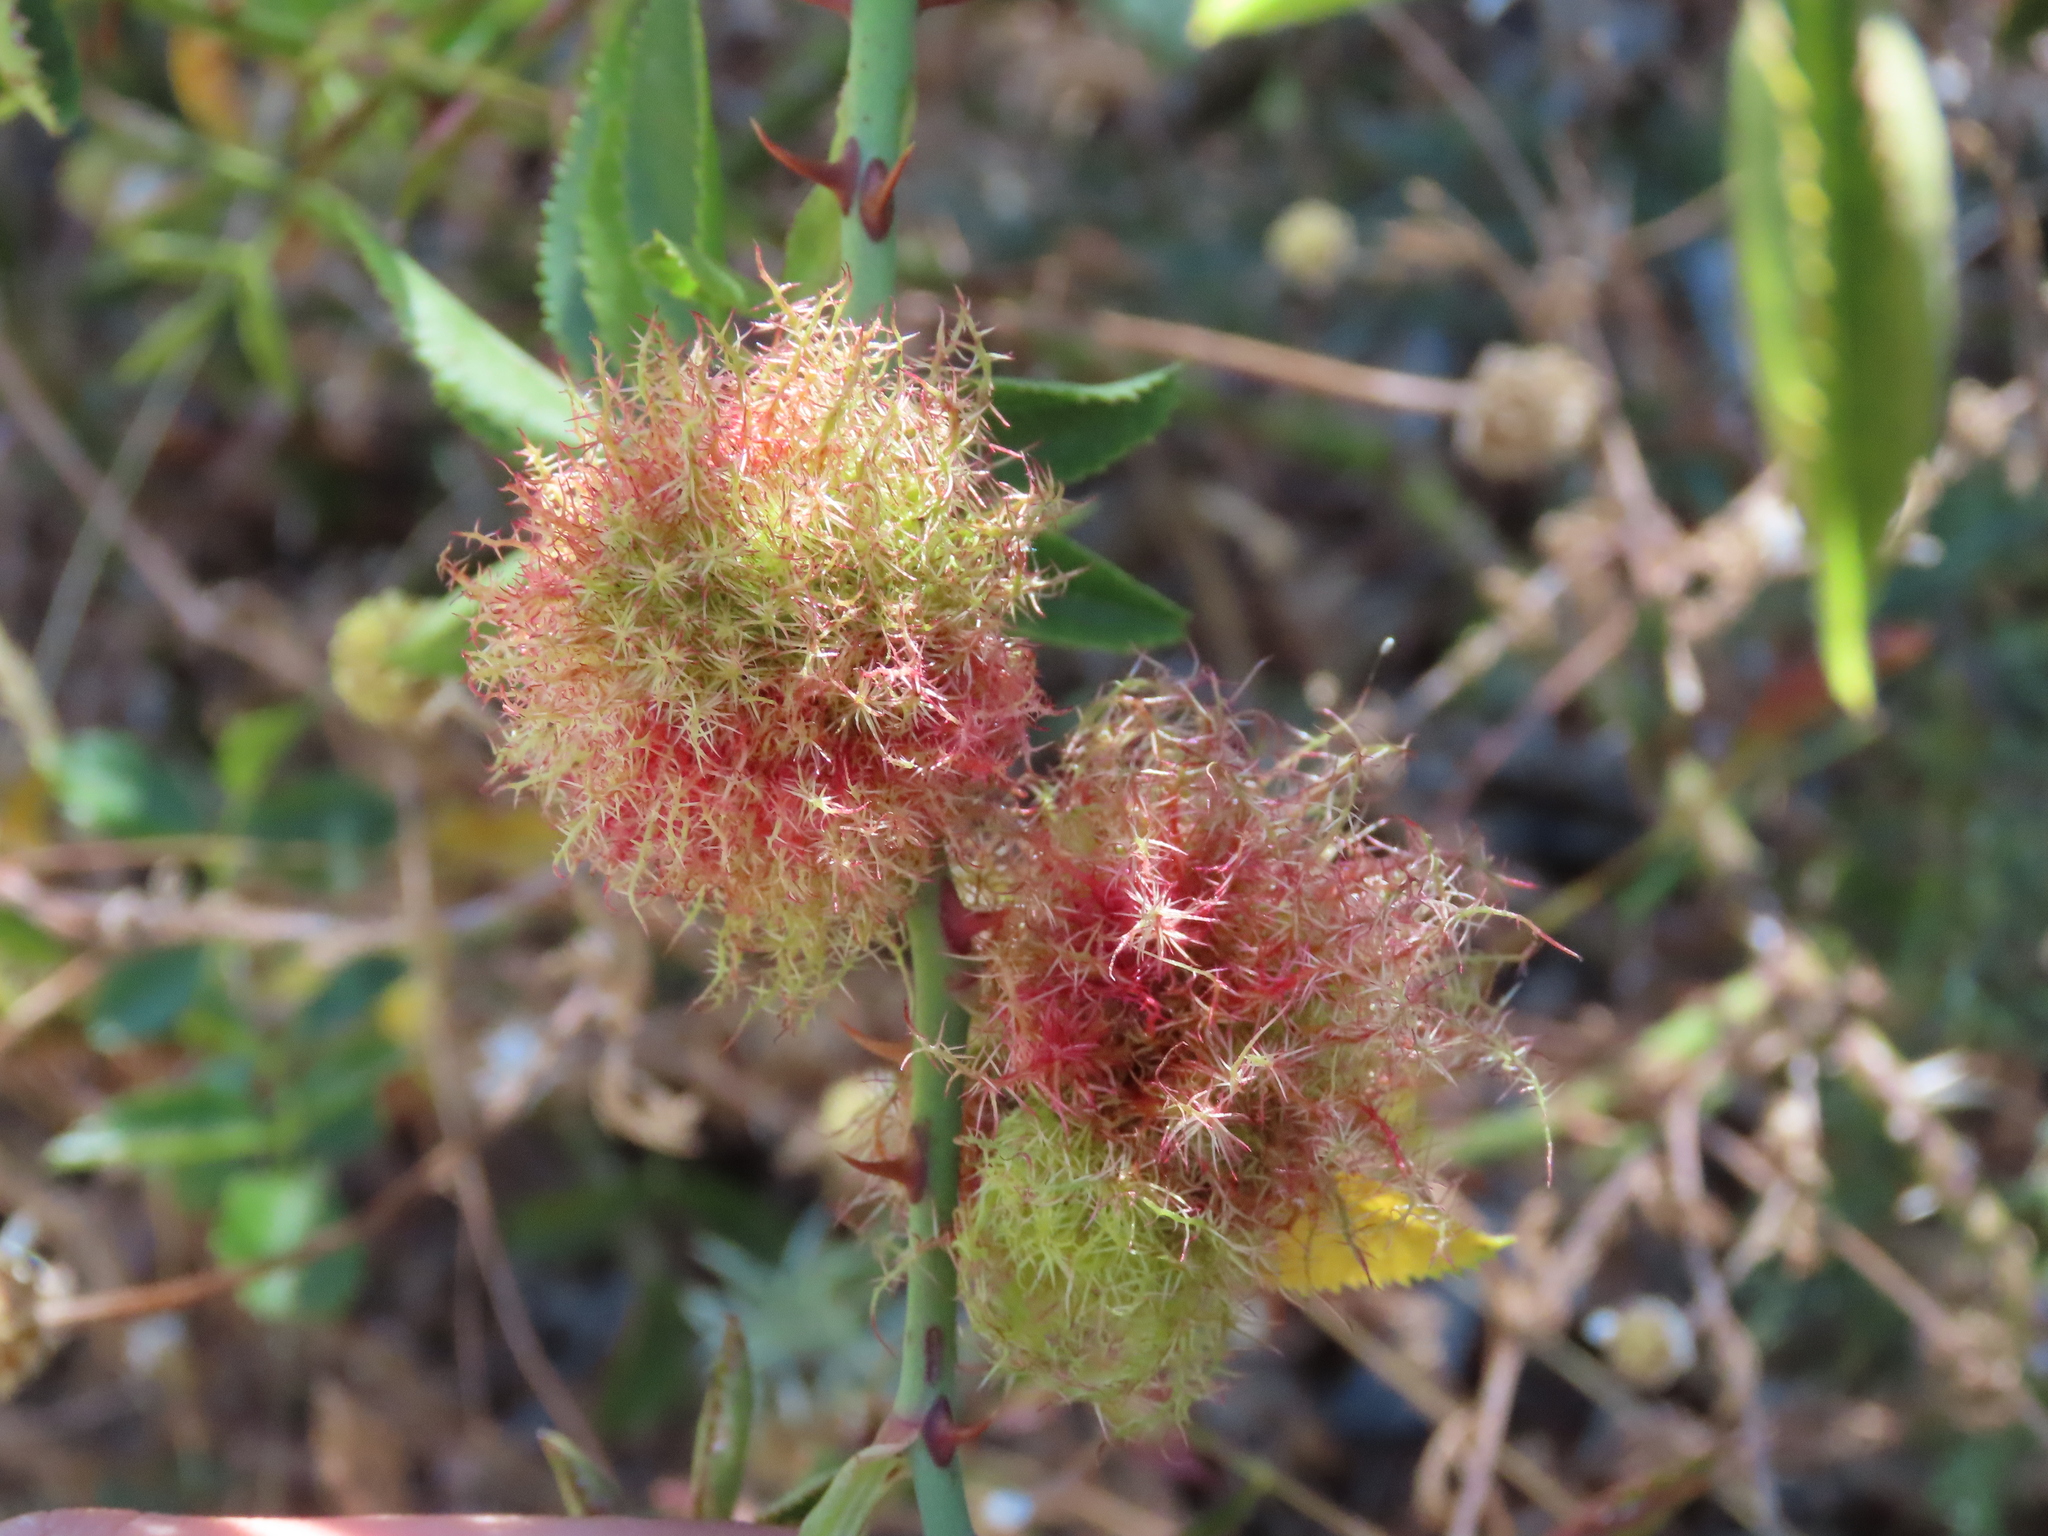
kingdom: Animalia
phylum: Arthropoda
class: Insecta
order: Hymenoptera
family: Cynipidae
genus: Diplolepis
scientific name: Diplolepis rosae
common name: Bedeguar gall
